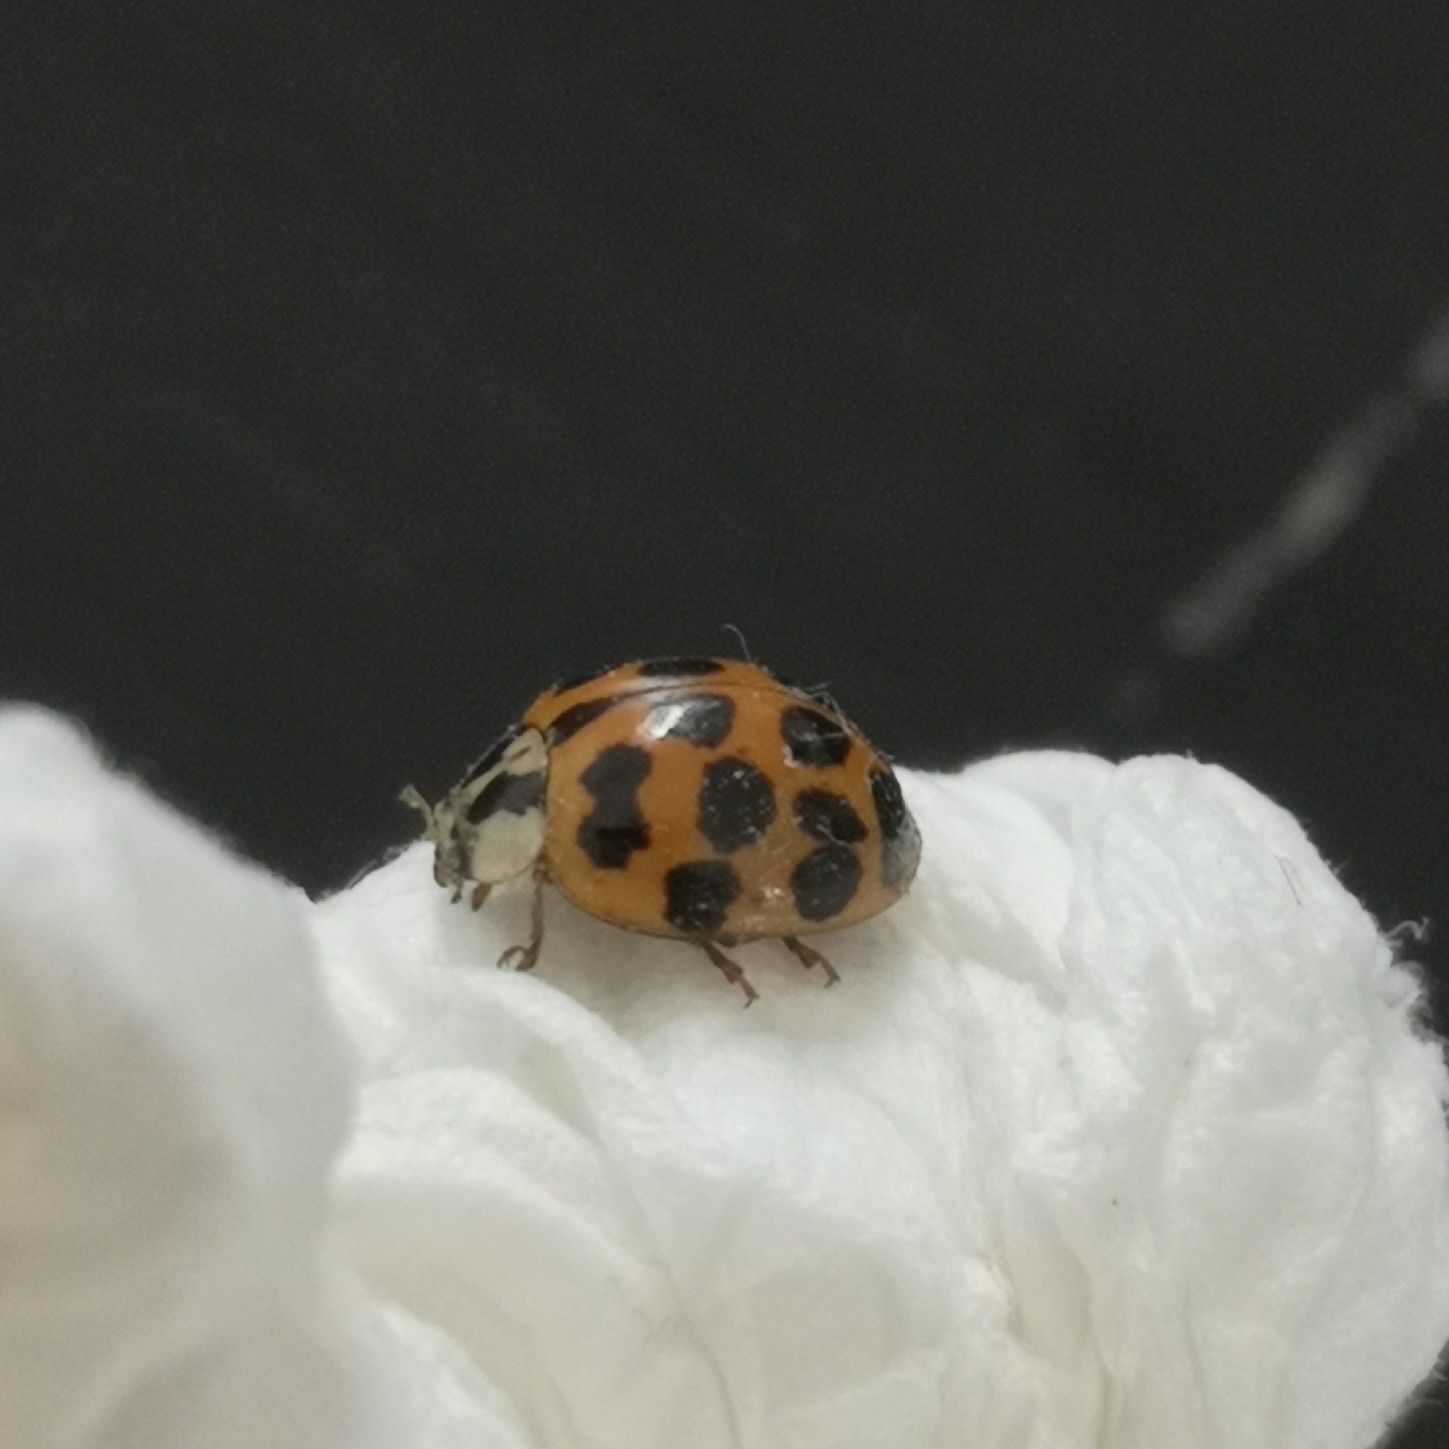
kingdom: Animalia
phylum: Arthropoda
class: Insecta
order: Coleoptera
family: Coccinellidae
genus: Harmonia
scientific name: Harmonia axyridis
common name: Harlequin ladybird
